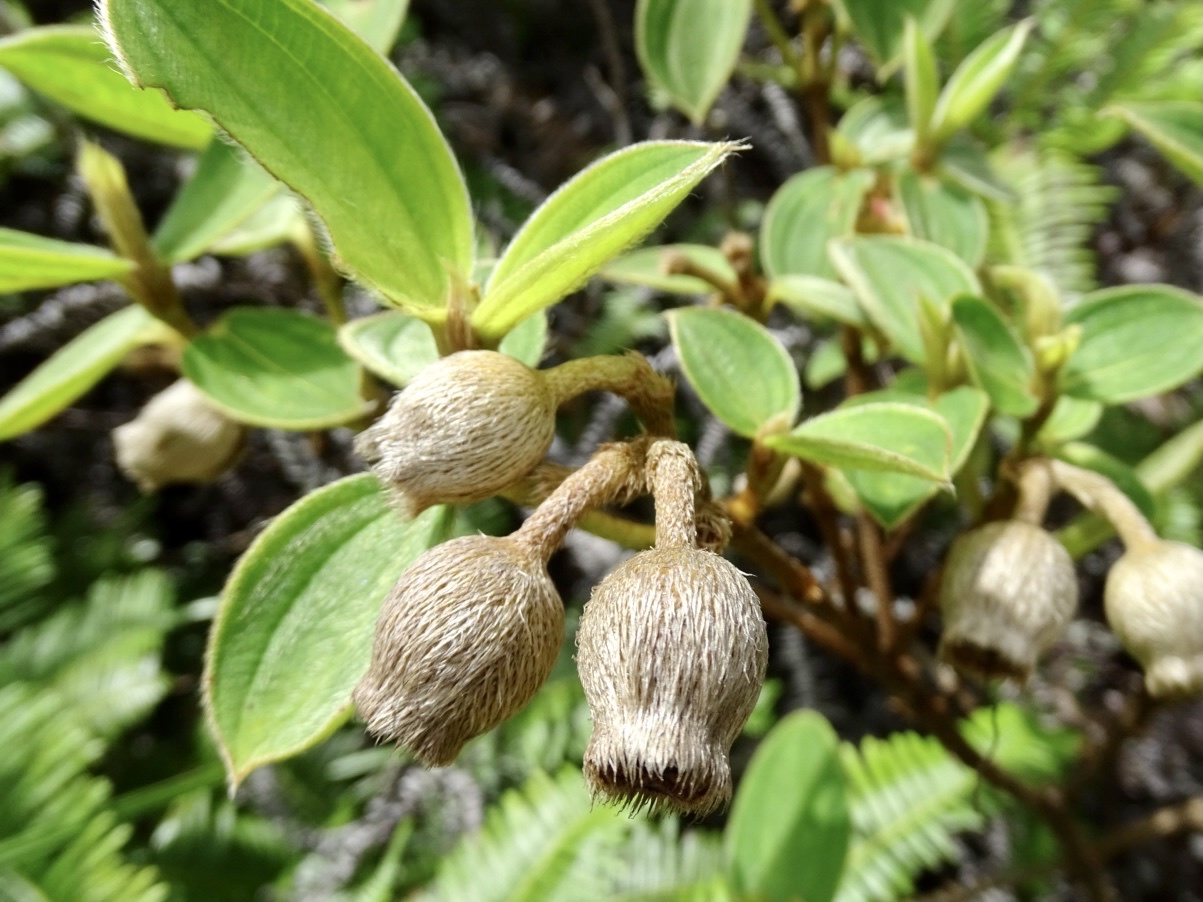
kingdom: Plantae
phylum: Tracheophyta
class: Magnoliopsida
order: Myrtales
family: Melastomataceae
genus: Melastoma
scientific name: Melastoma malabathricum
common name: Indian-rhododendron
